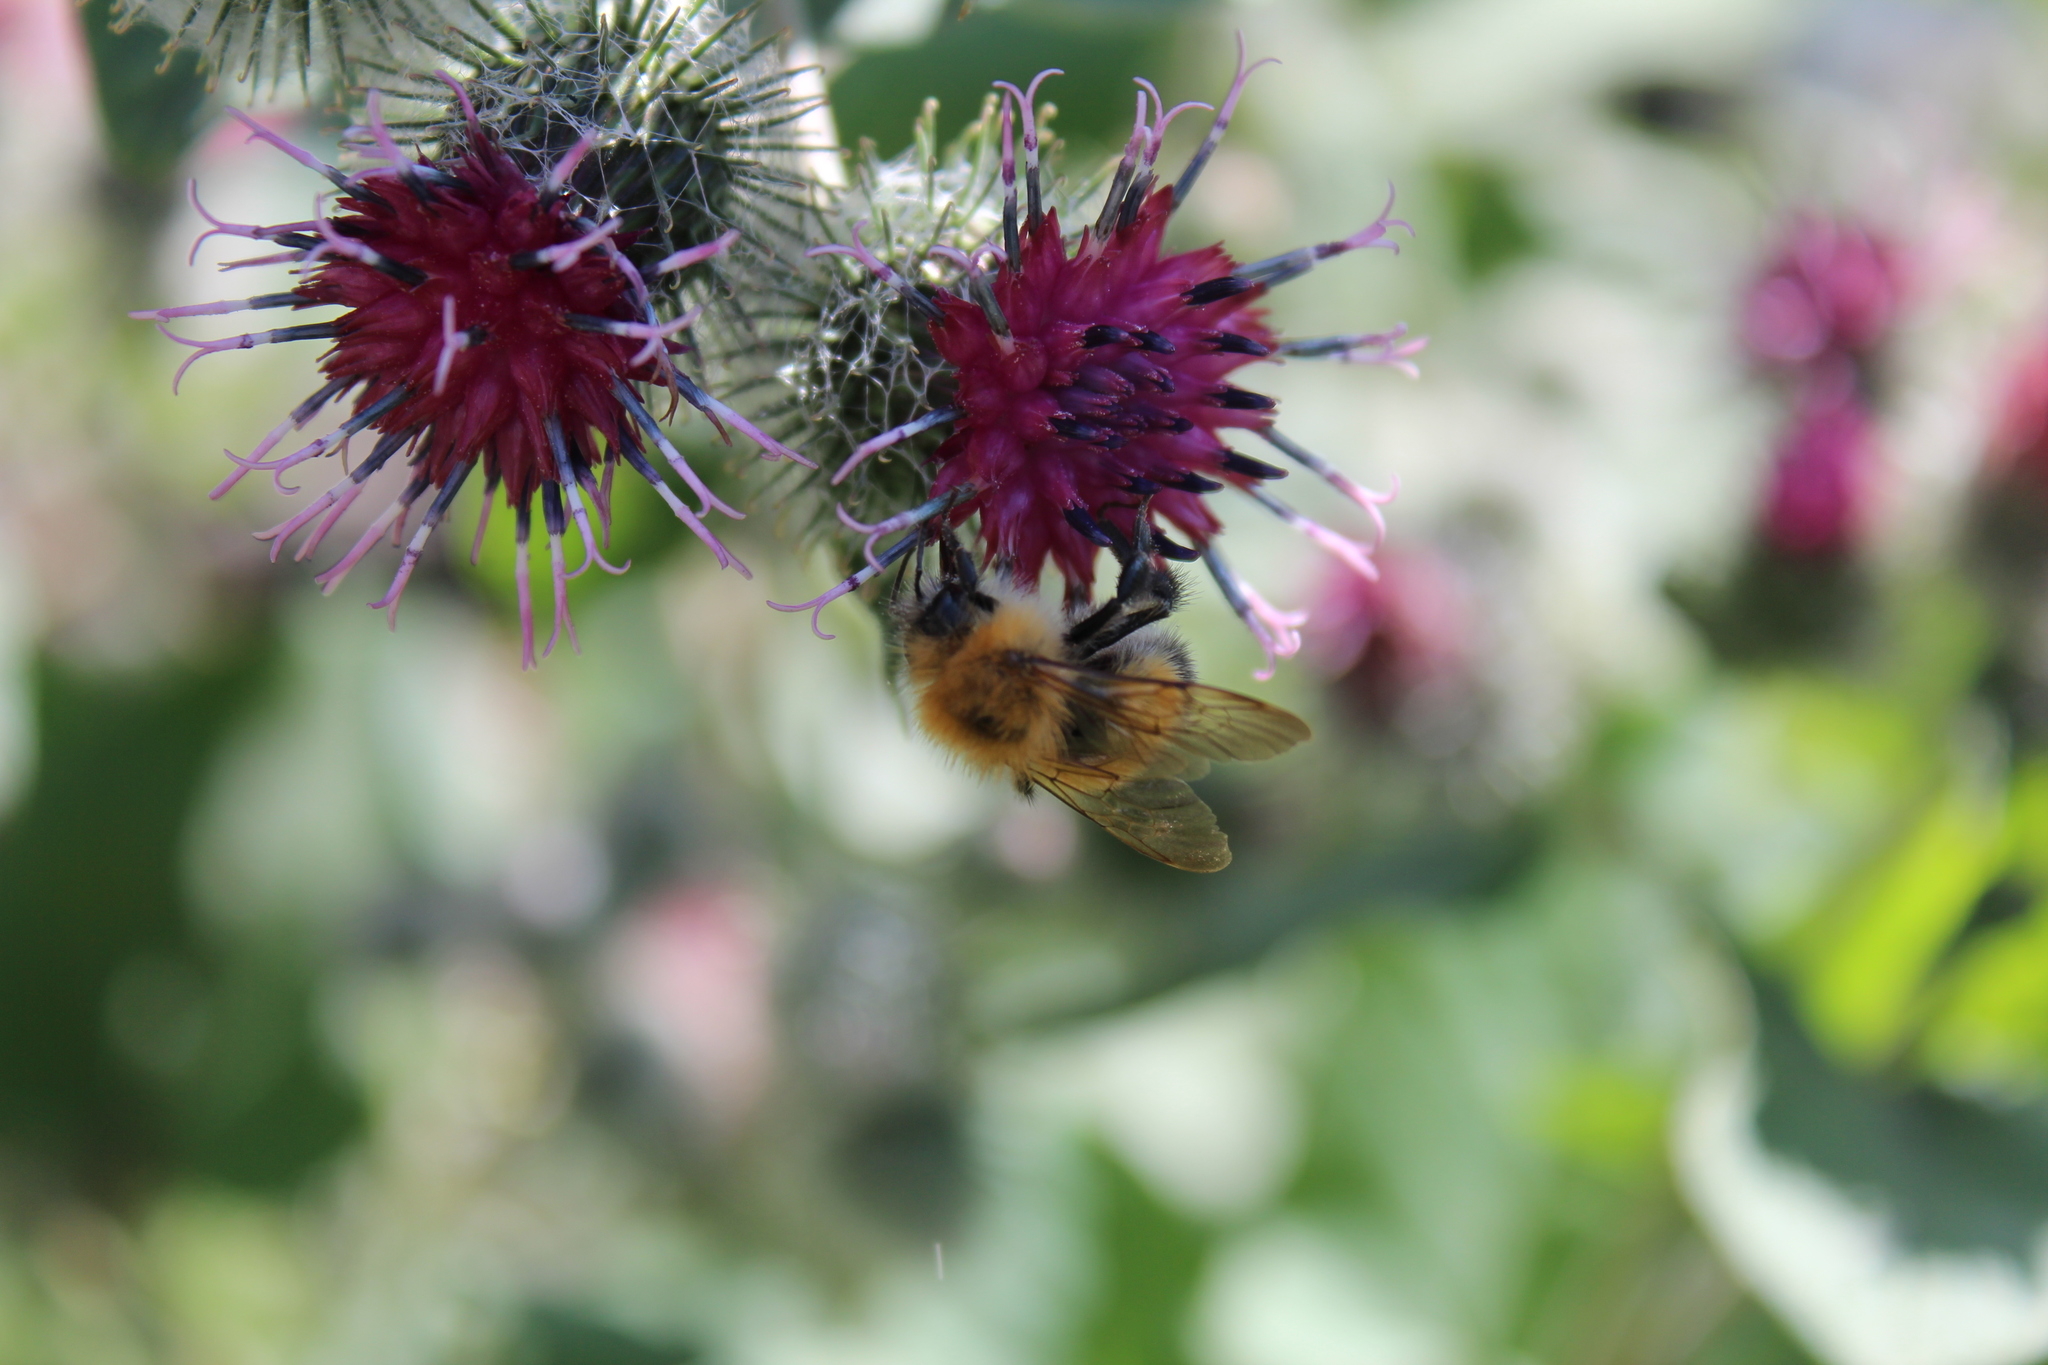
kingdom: Animalia
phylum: Arthropoda
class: Insecta
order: Hymenoptera
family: Apidae
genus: Bombus
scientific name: Bombus hypnorum
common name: New garden bumblebee
